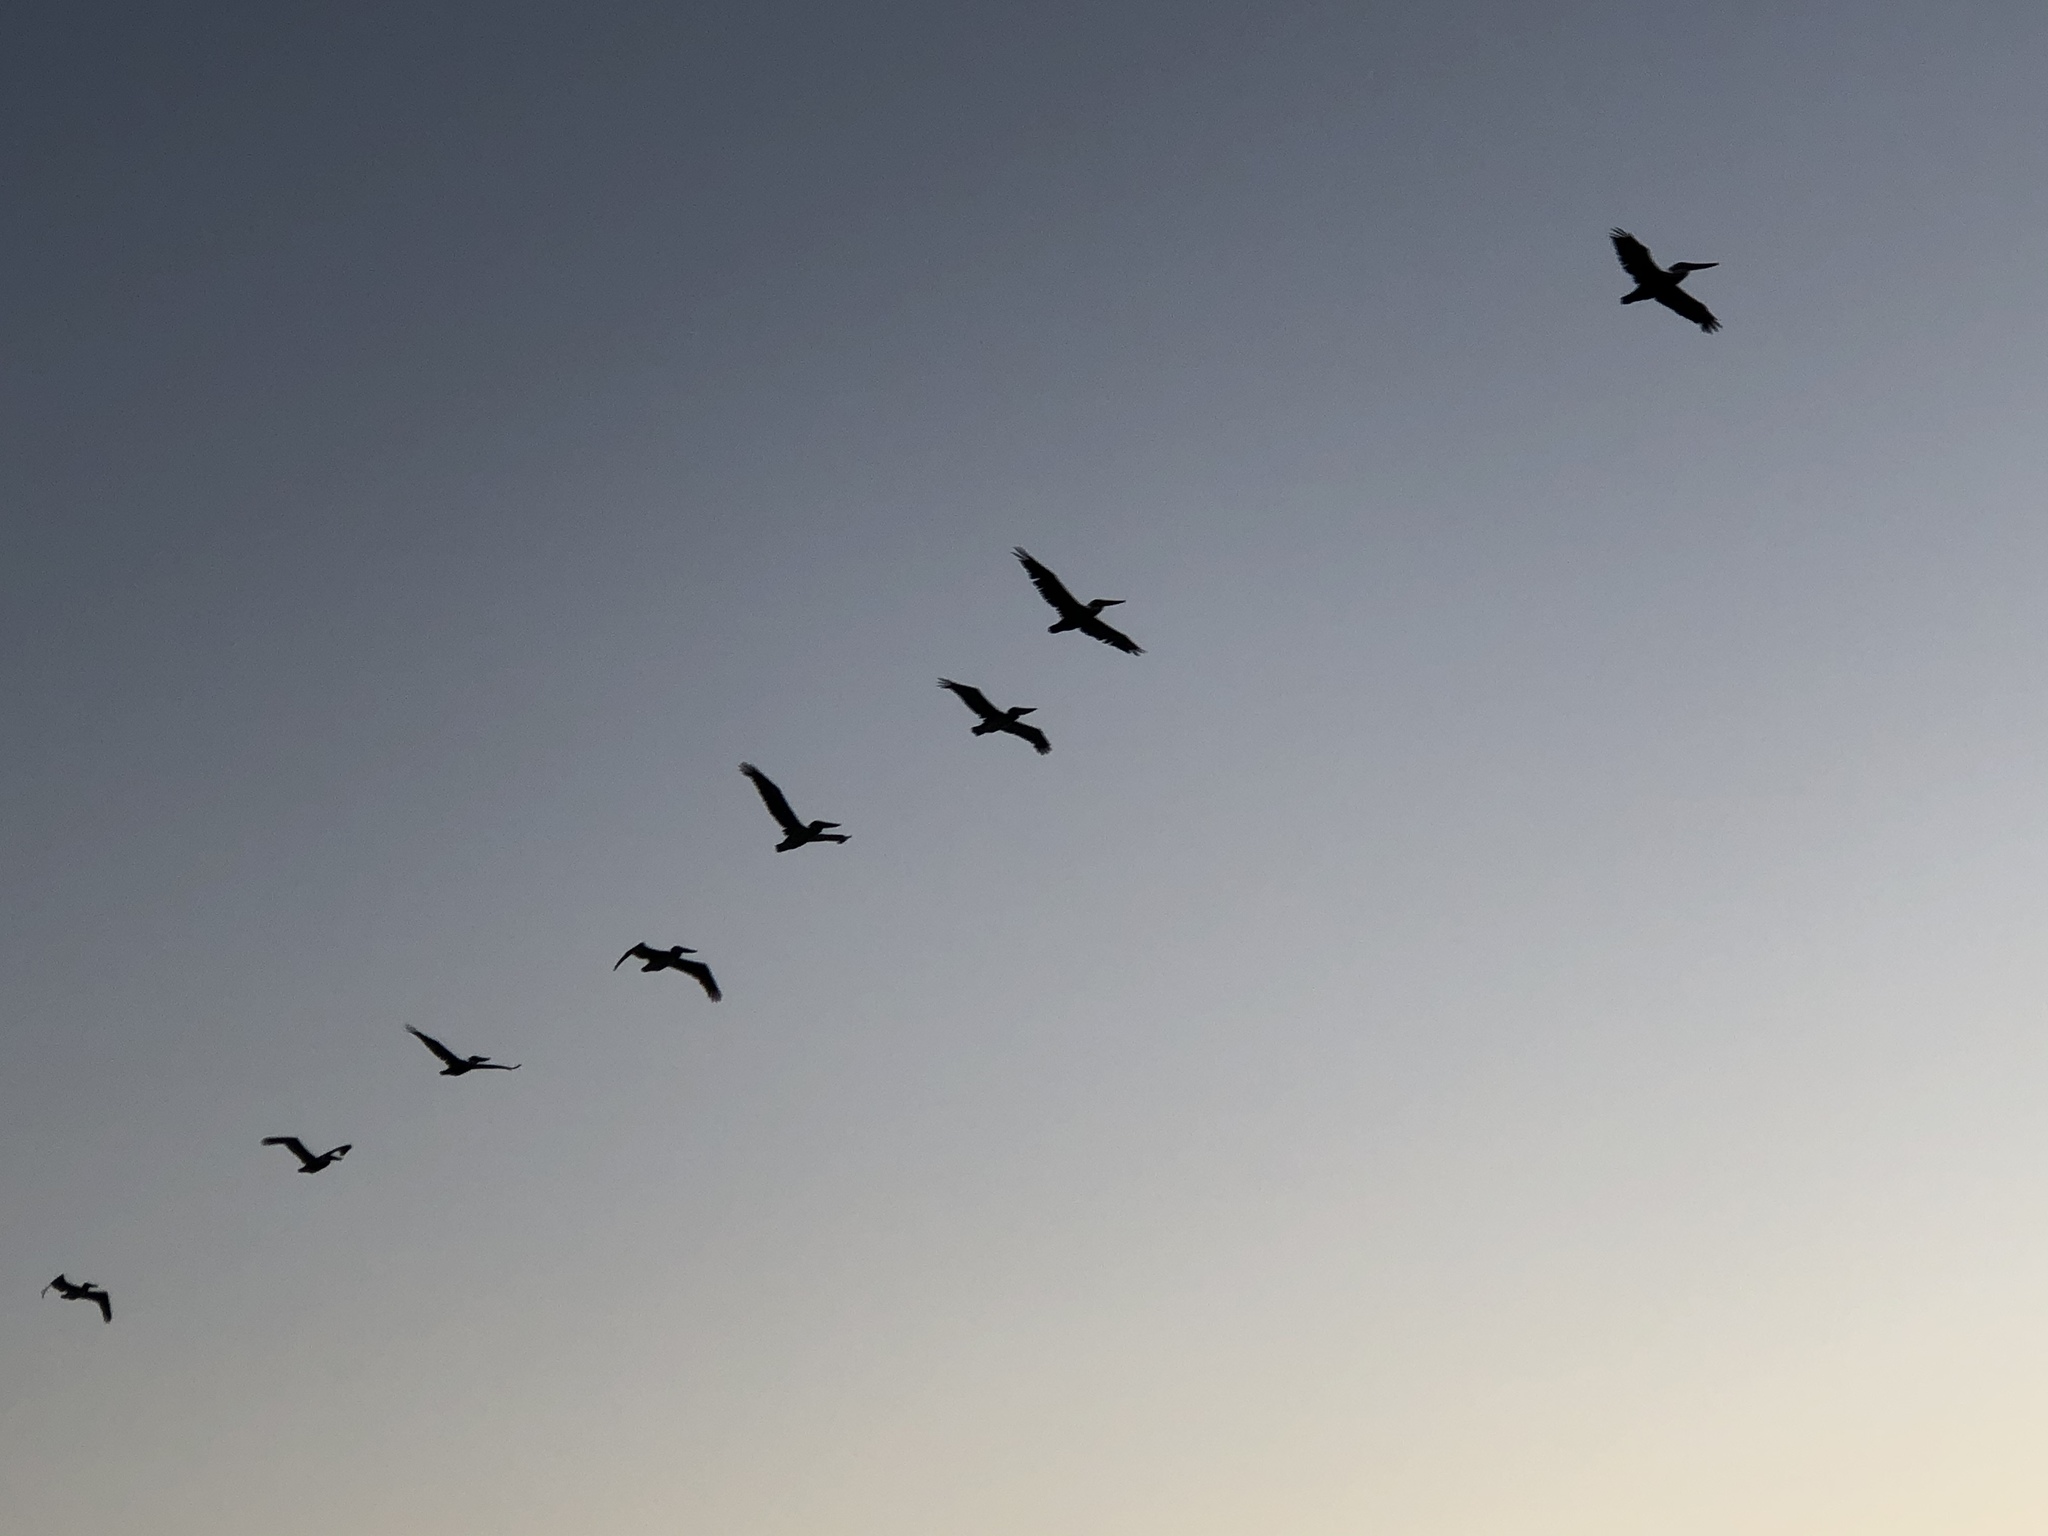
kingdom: Animalia
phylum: Chordata
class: Aves
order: Pelecaniformes
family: Pelecanidae
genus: Pelecanus
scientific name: Pelecanus occidentalis
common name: Brown pelican
